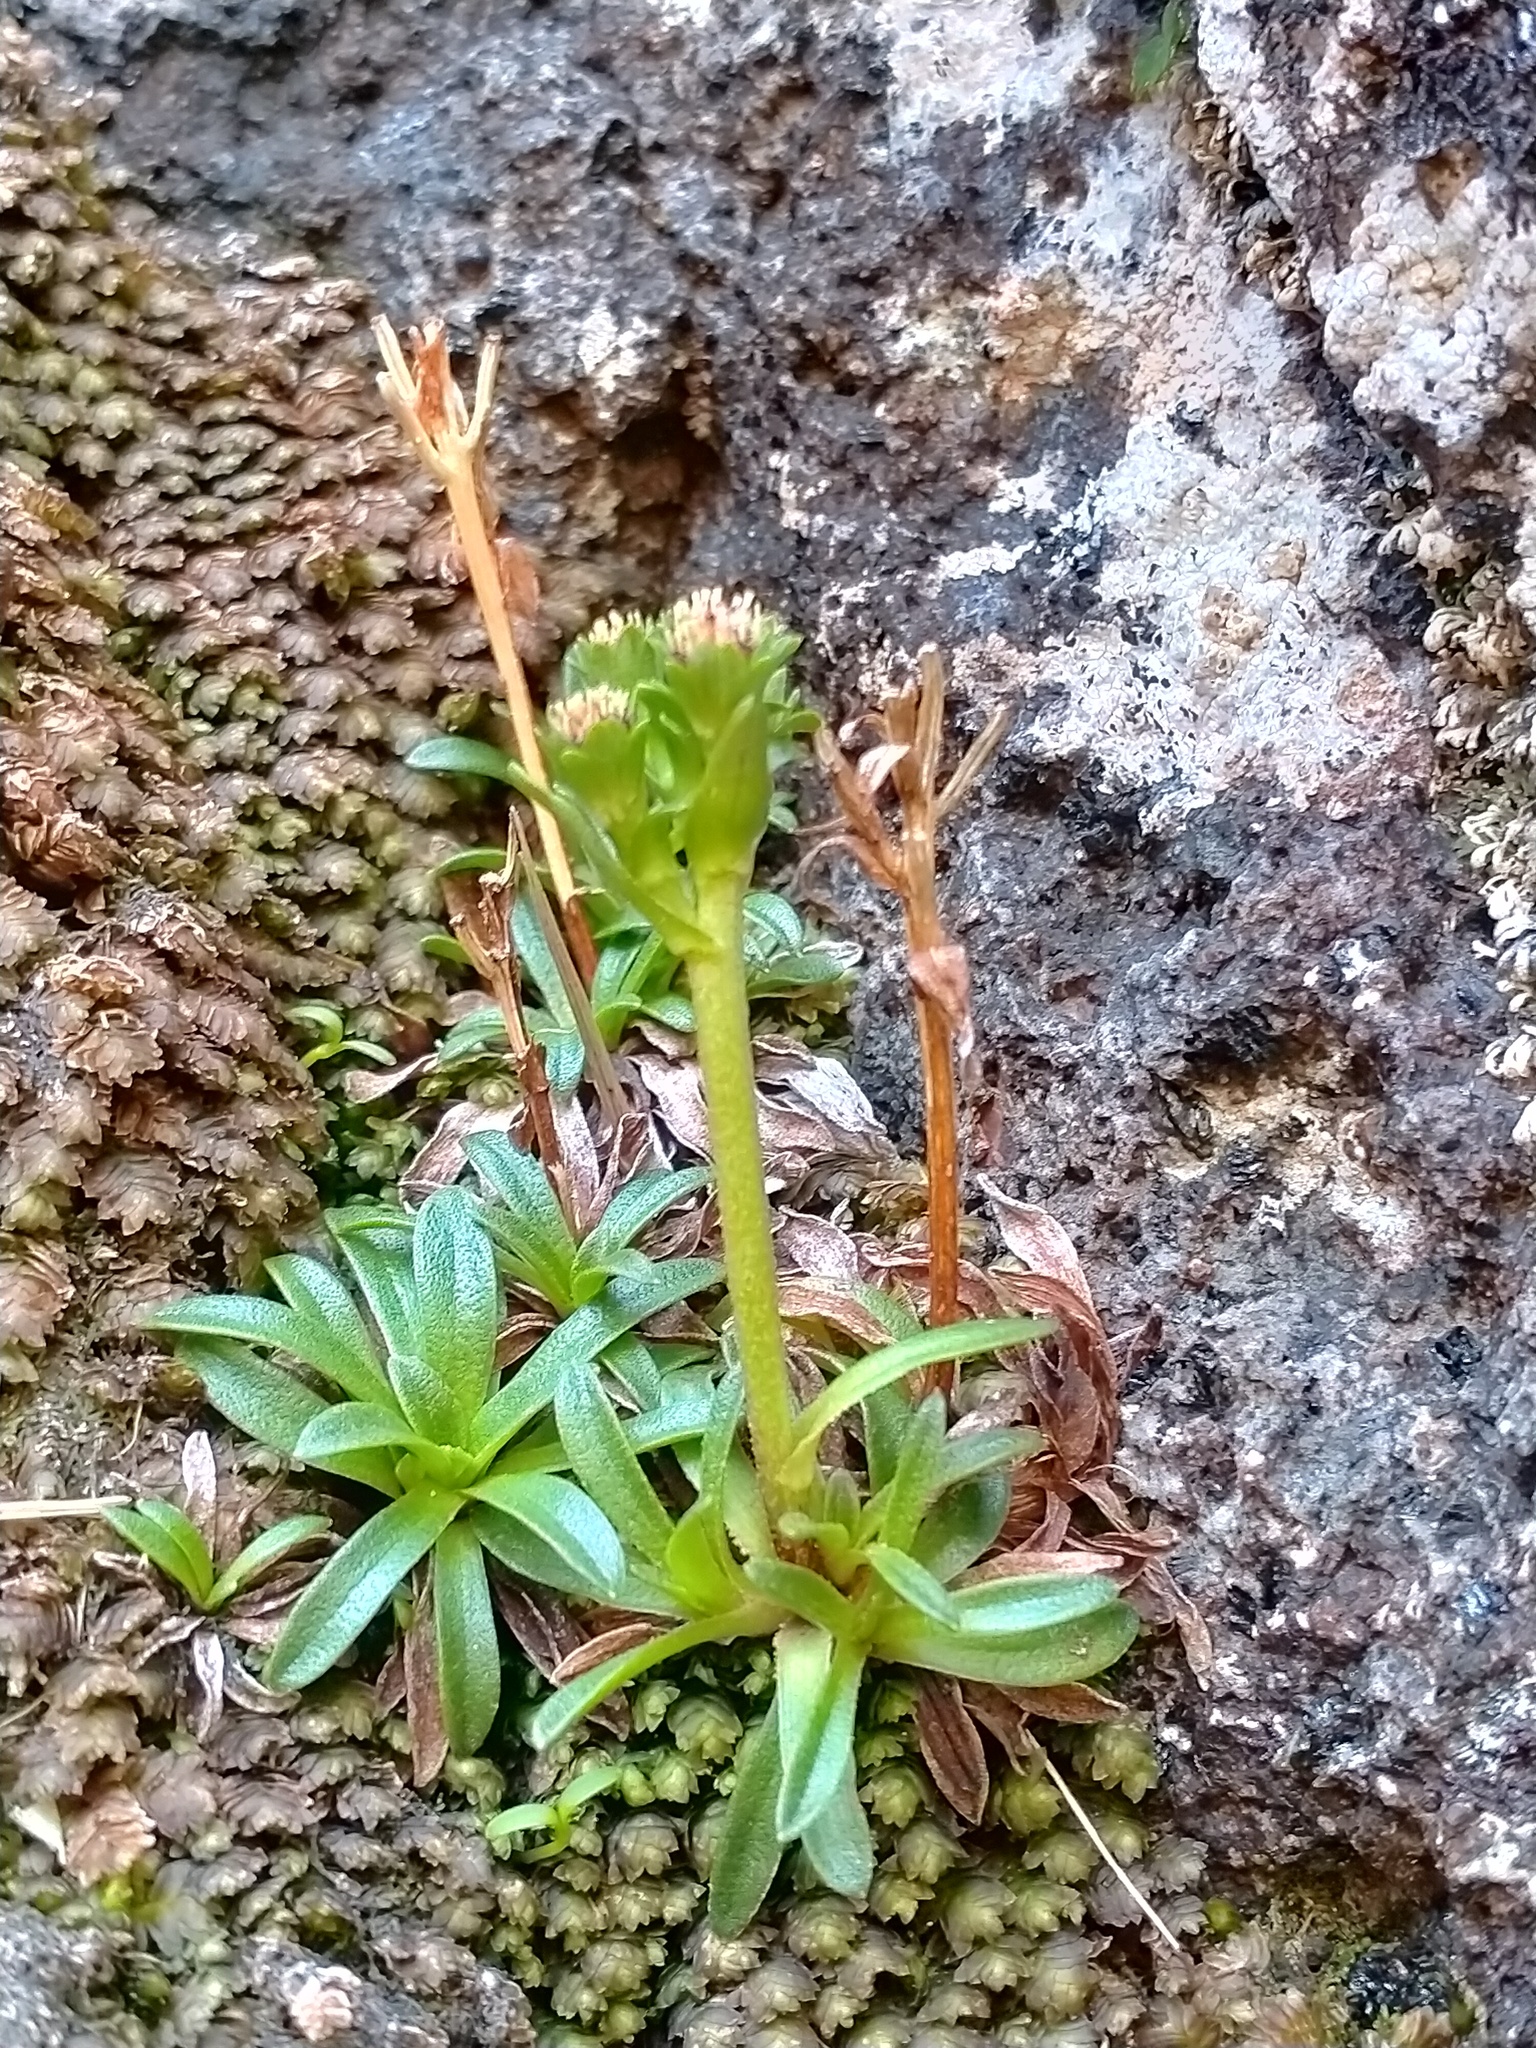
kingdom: Plantae
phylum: Tracheophyta
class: Magnoliopsida
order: Asterales
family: Asteraceae
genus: Abrotanella
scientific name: Abrotanella spathulata
